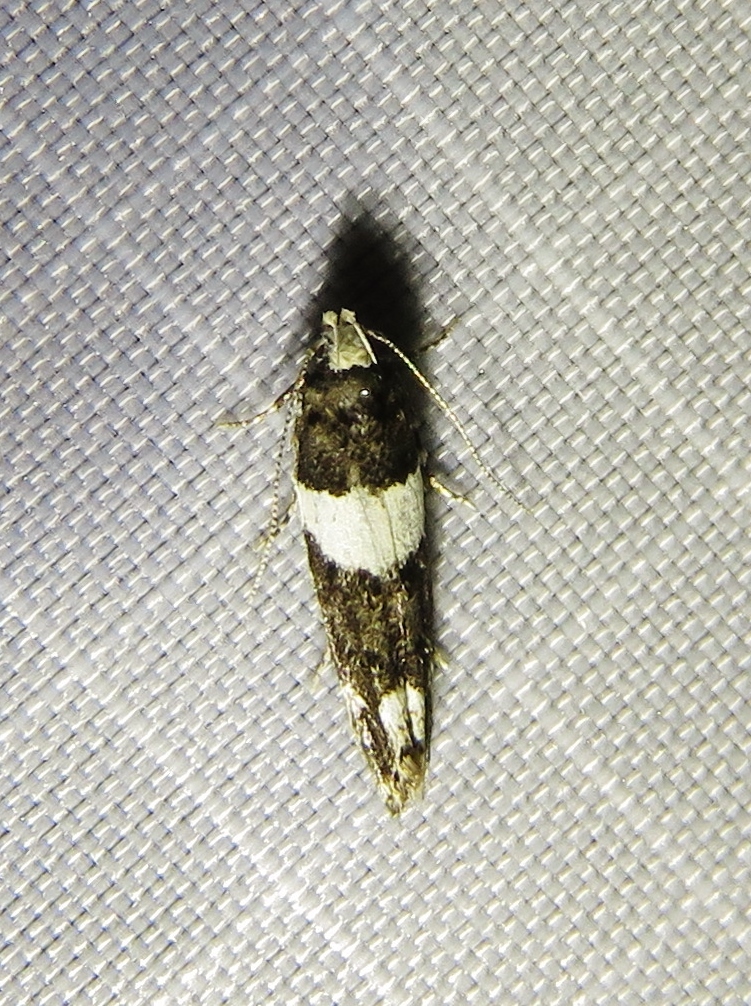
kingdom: Animalia
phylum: Arthropoda
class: Insecta
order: Lepidoptera
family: Gelechiidae
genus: Recurvaria
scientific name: Recurvaria leucatella
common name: White-barred groundling
